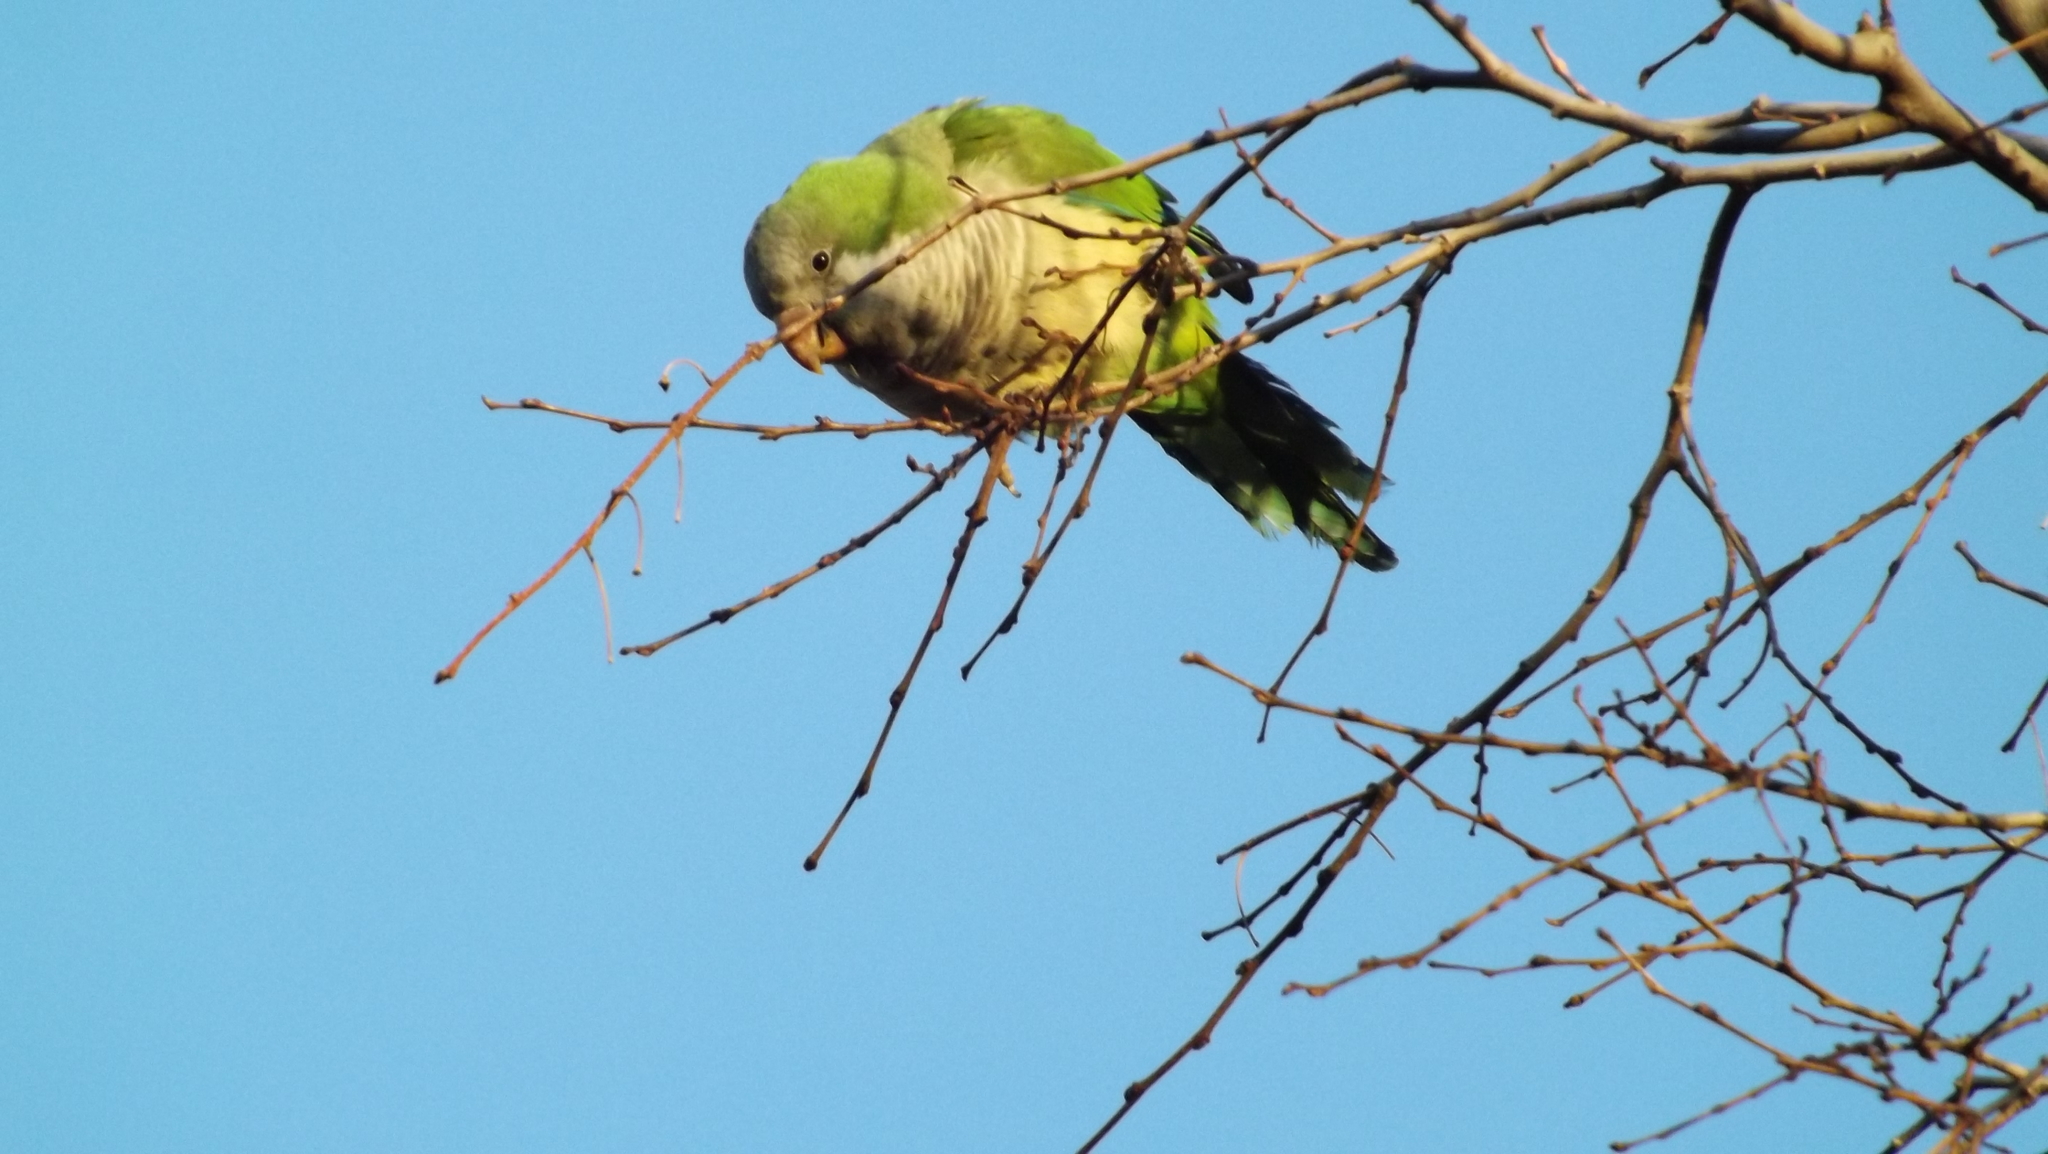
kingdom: Animalia
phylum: Chordata
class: Aves
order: Psittaciformes
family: Psittacidae
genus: Myiopsitta
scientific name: Myiopsitta monachus
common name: Monk parakeet
